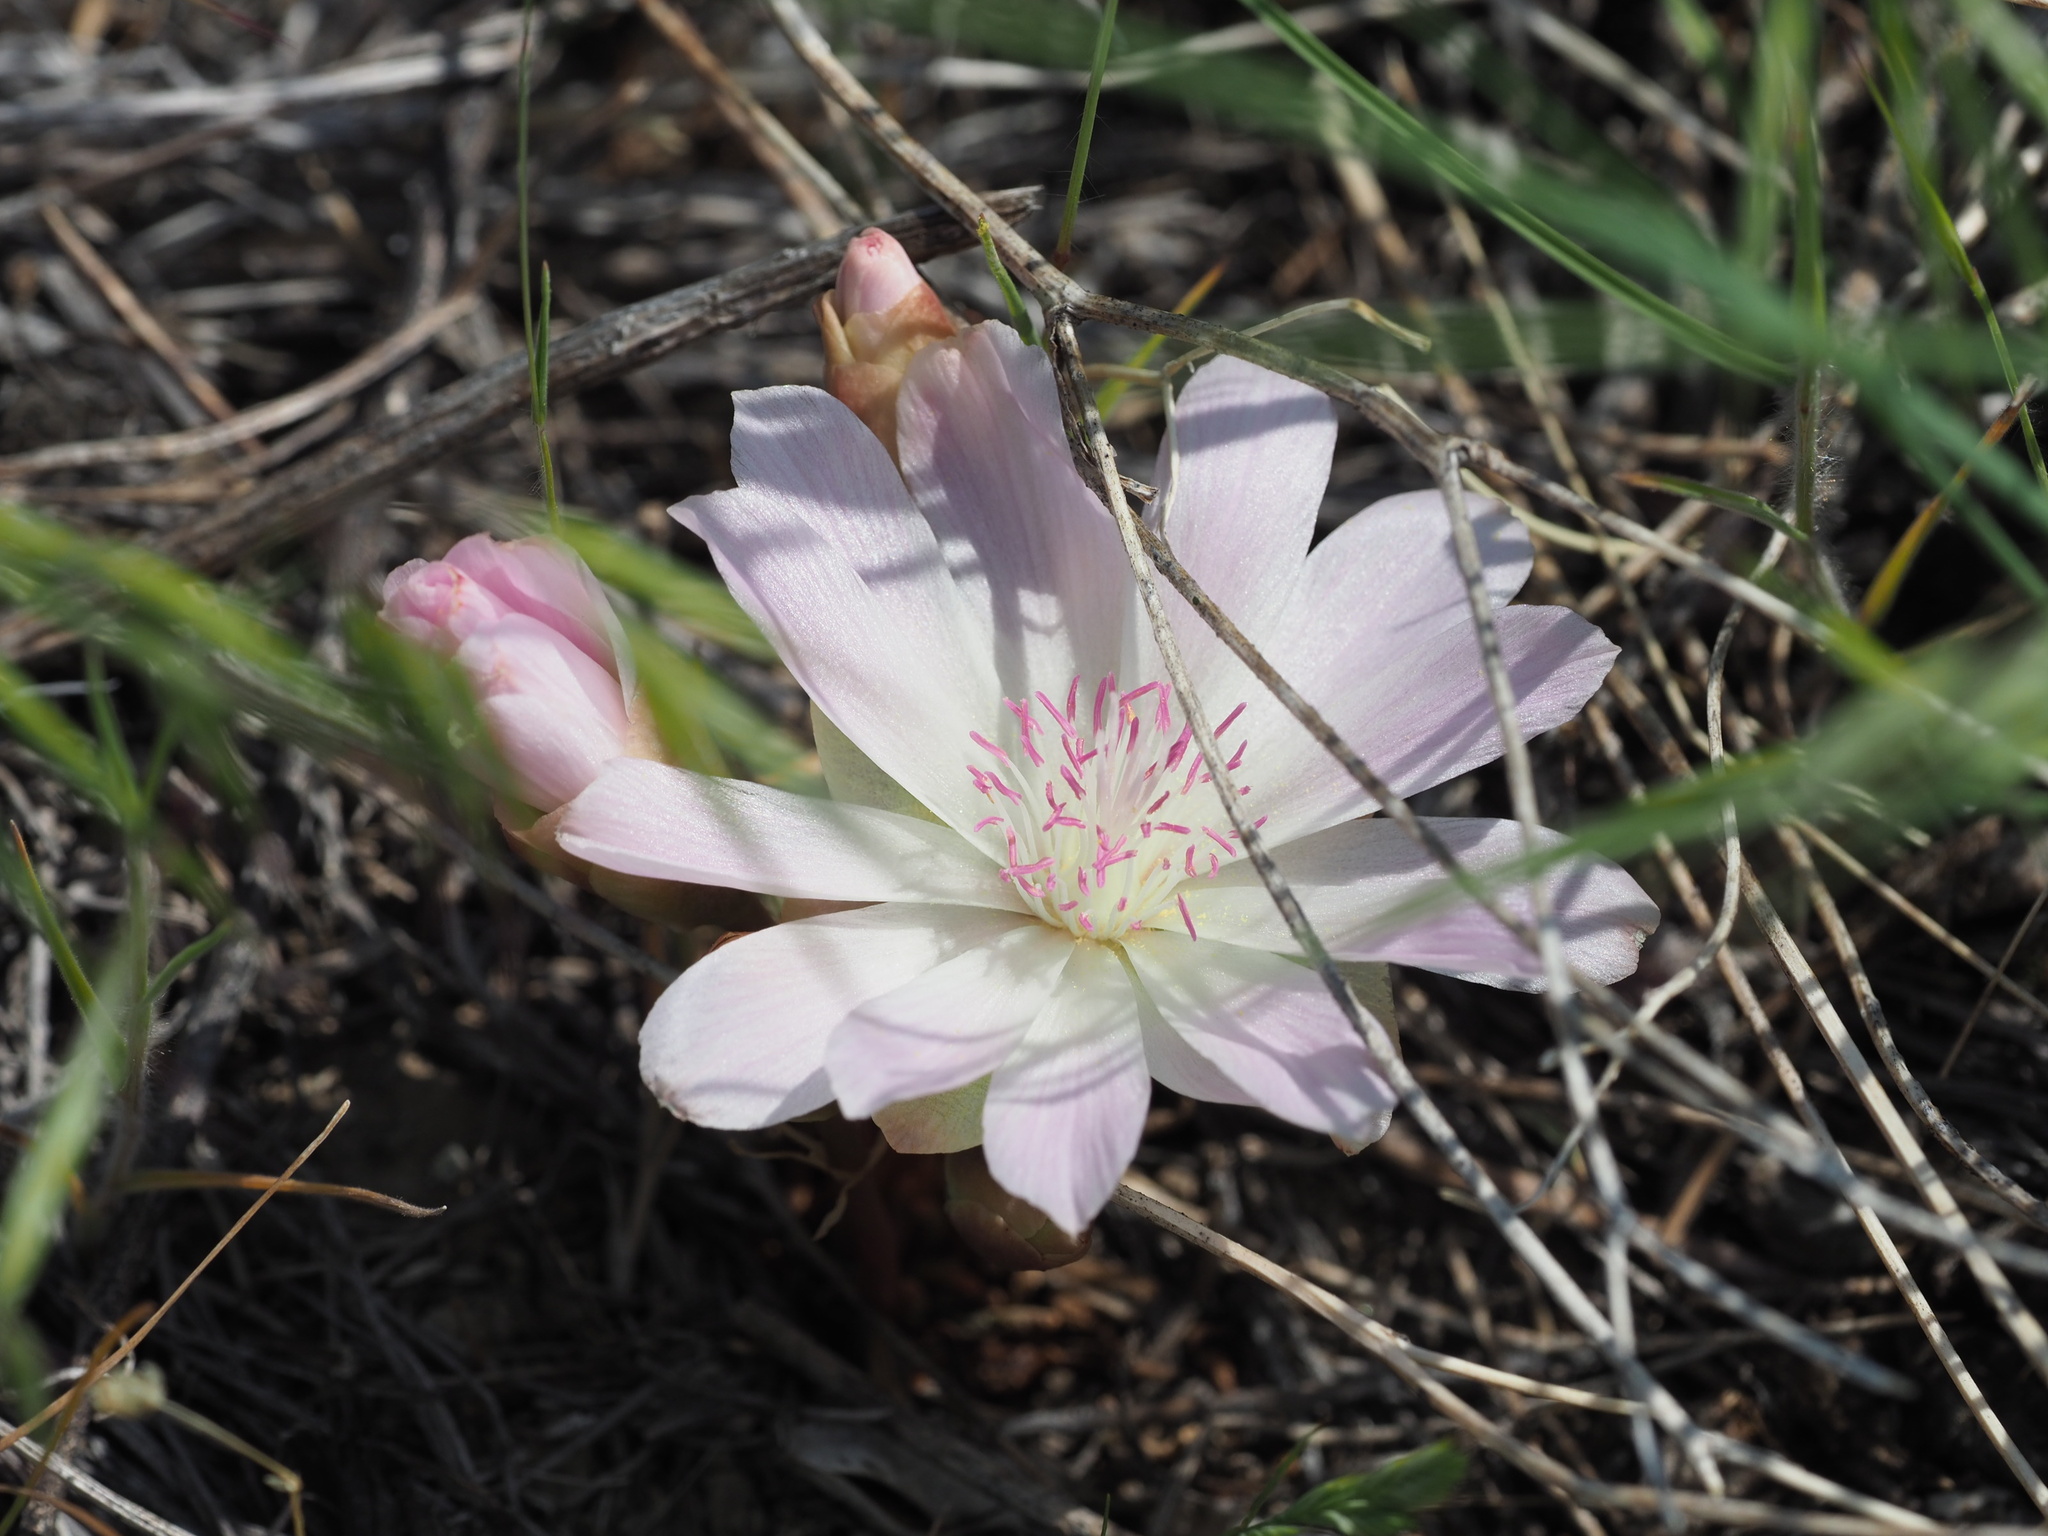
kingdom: Plantae
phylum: Tracheophyta
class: Magnoliopsida
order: Caryophyllales
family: Montiaceae
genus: Lewisia
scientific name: Lewisia rediviva
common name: Bitter-root
